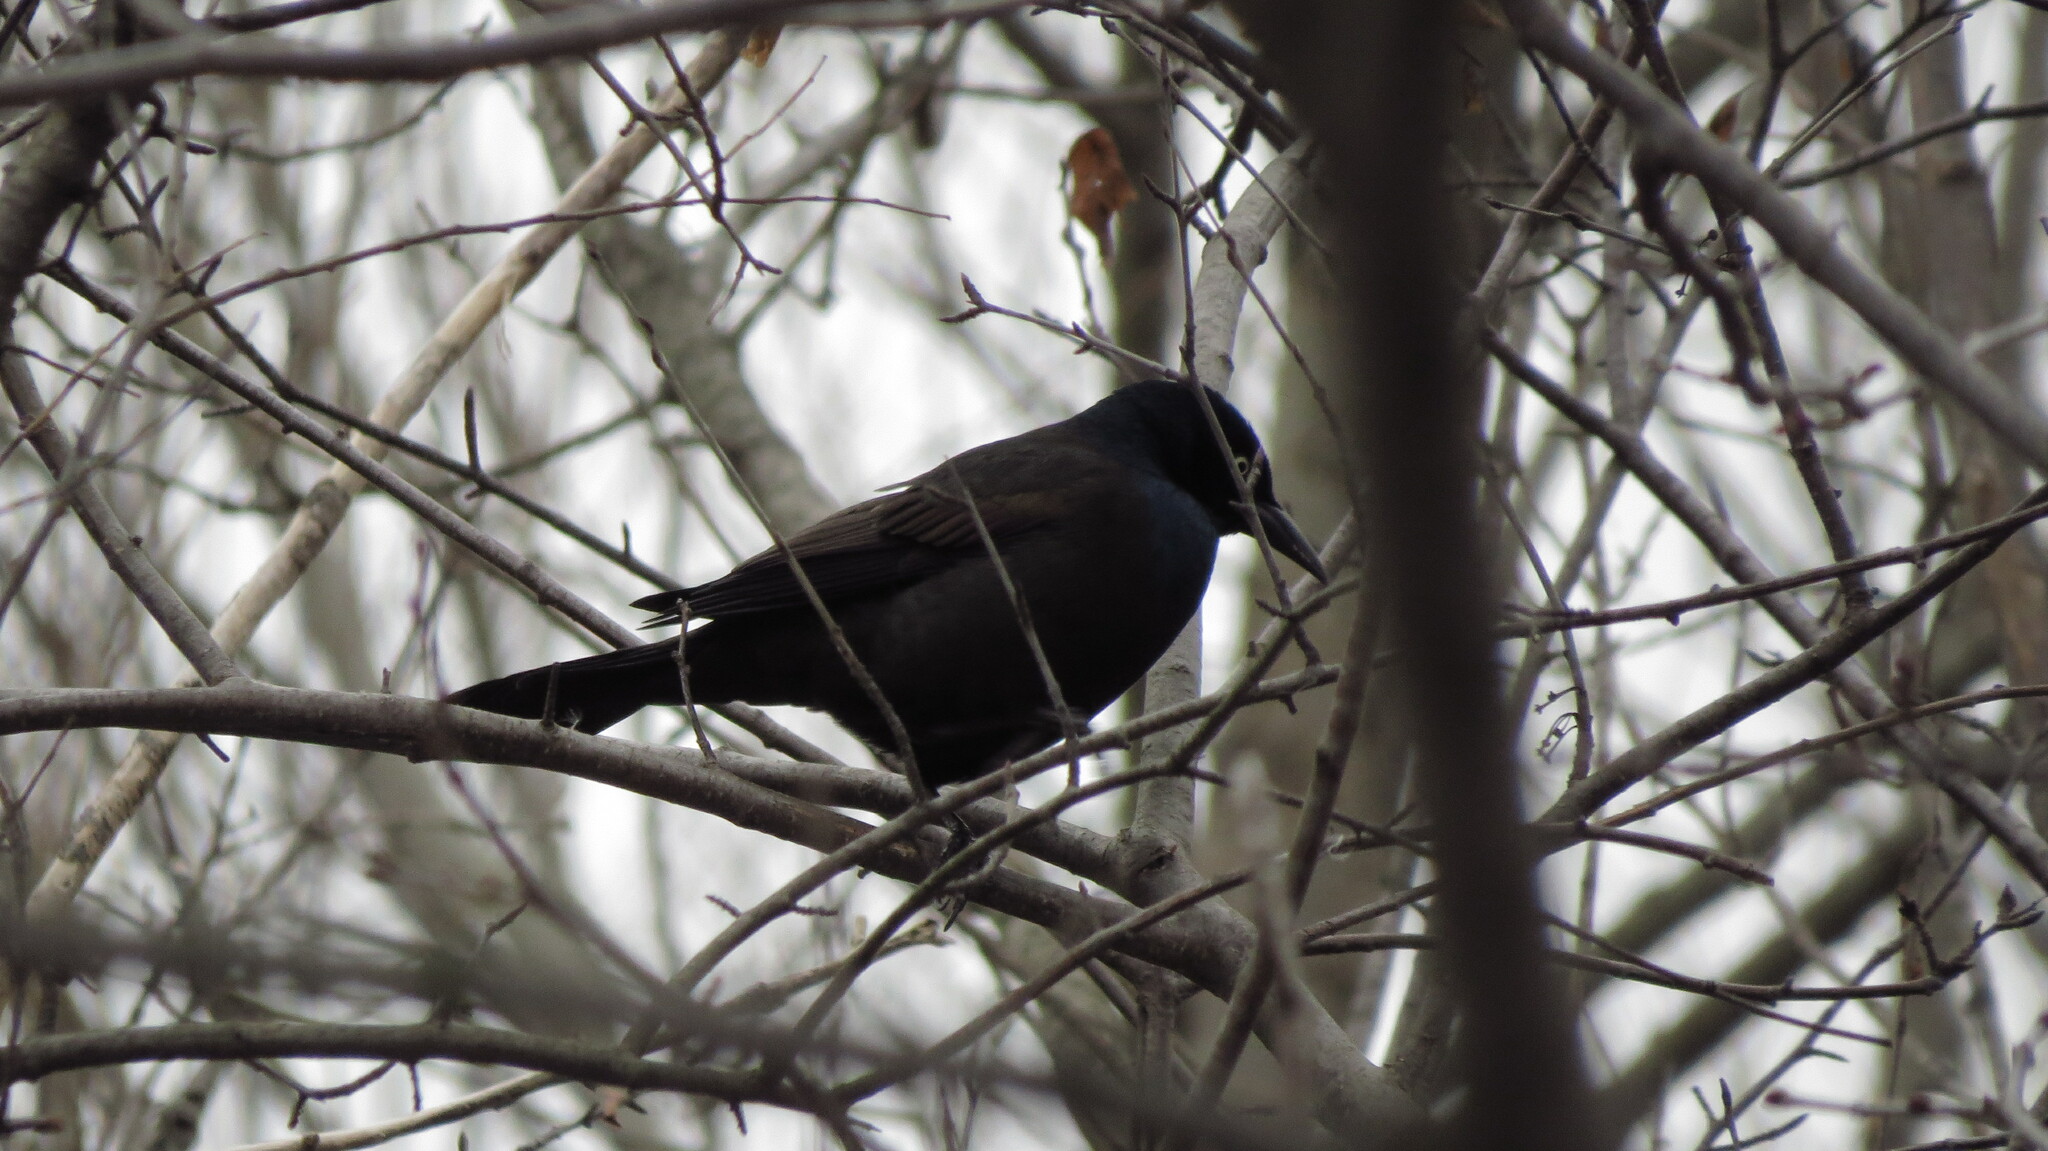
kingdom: Animalia
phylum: Chordata
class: Aves
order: Passeriformes
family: Icteridae
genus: Quiscalus
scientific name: Quiscalus quiscula
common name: Common grackle
